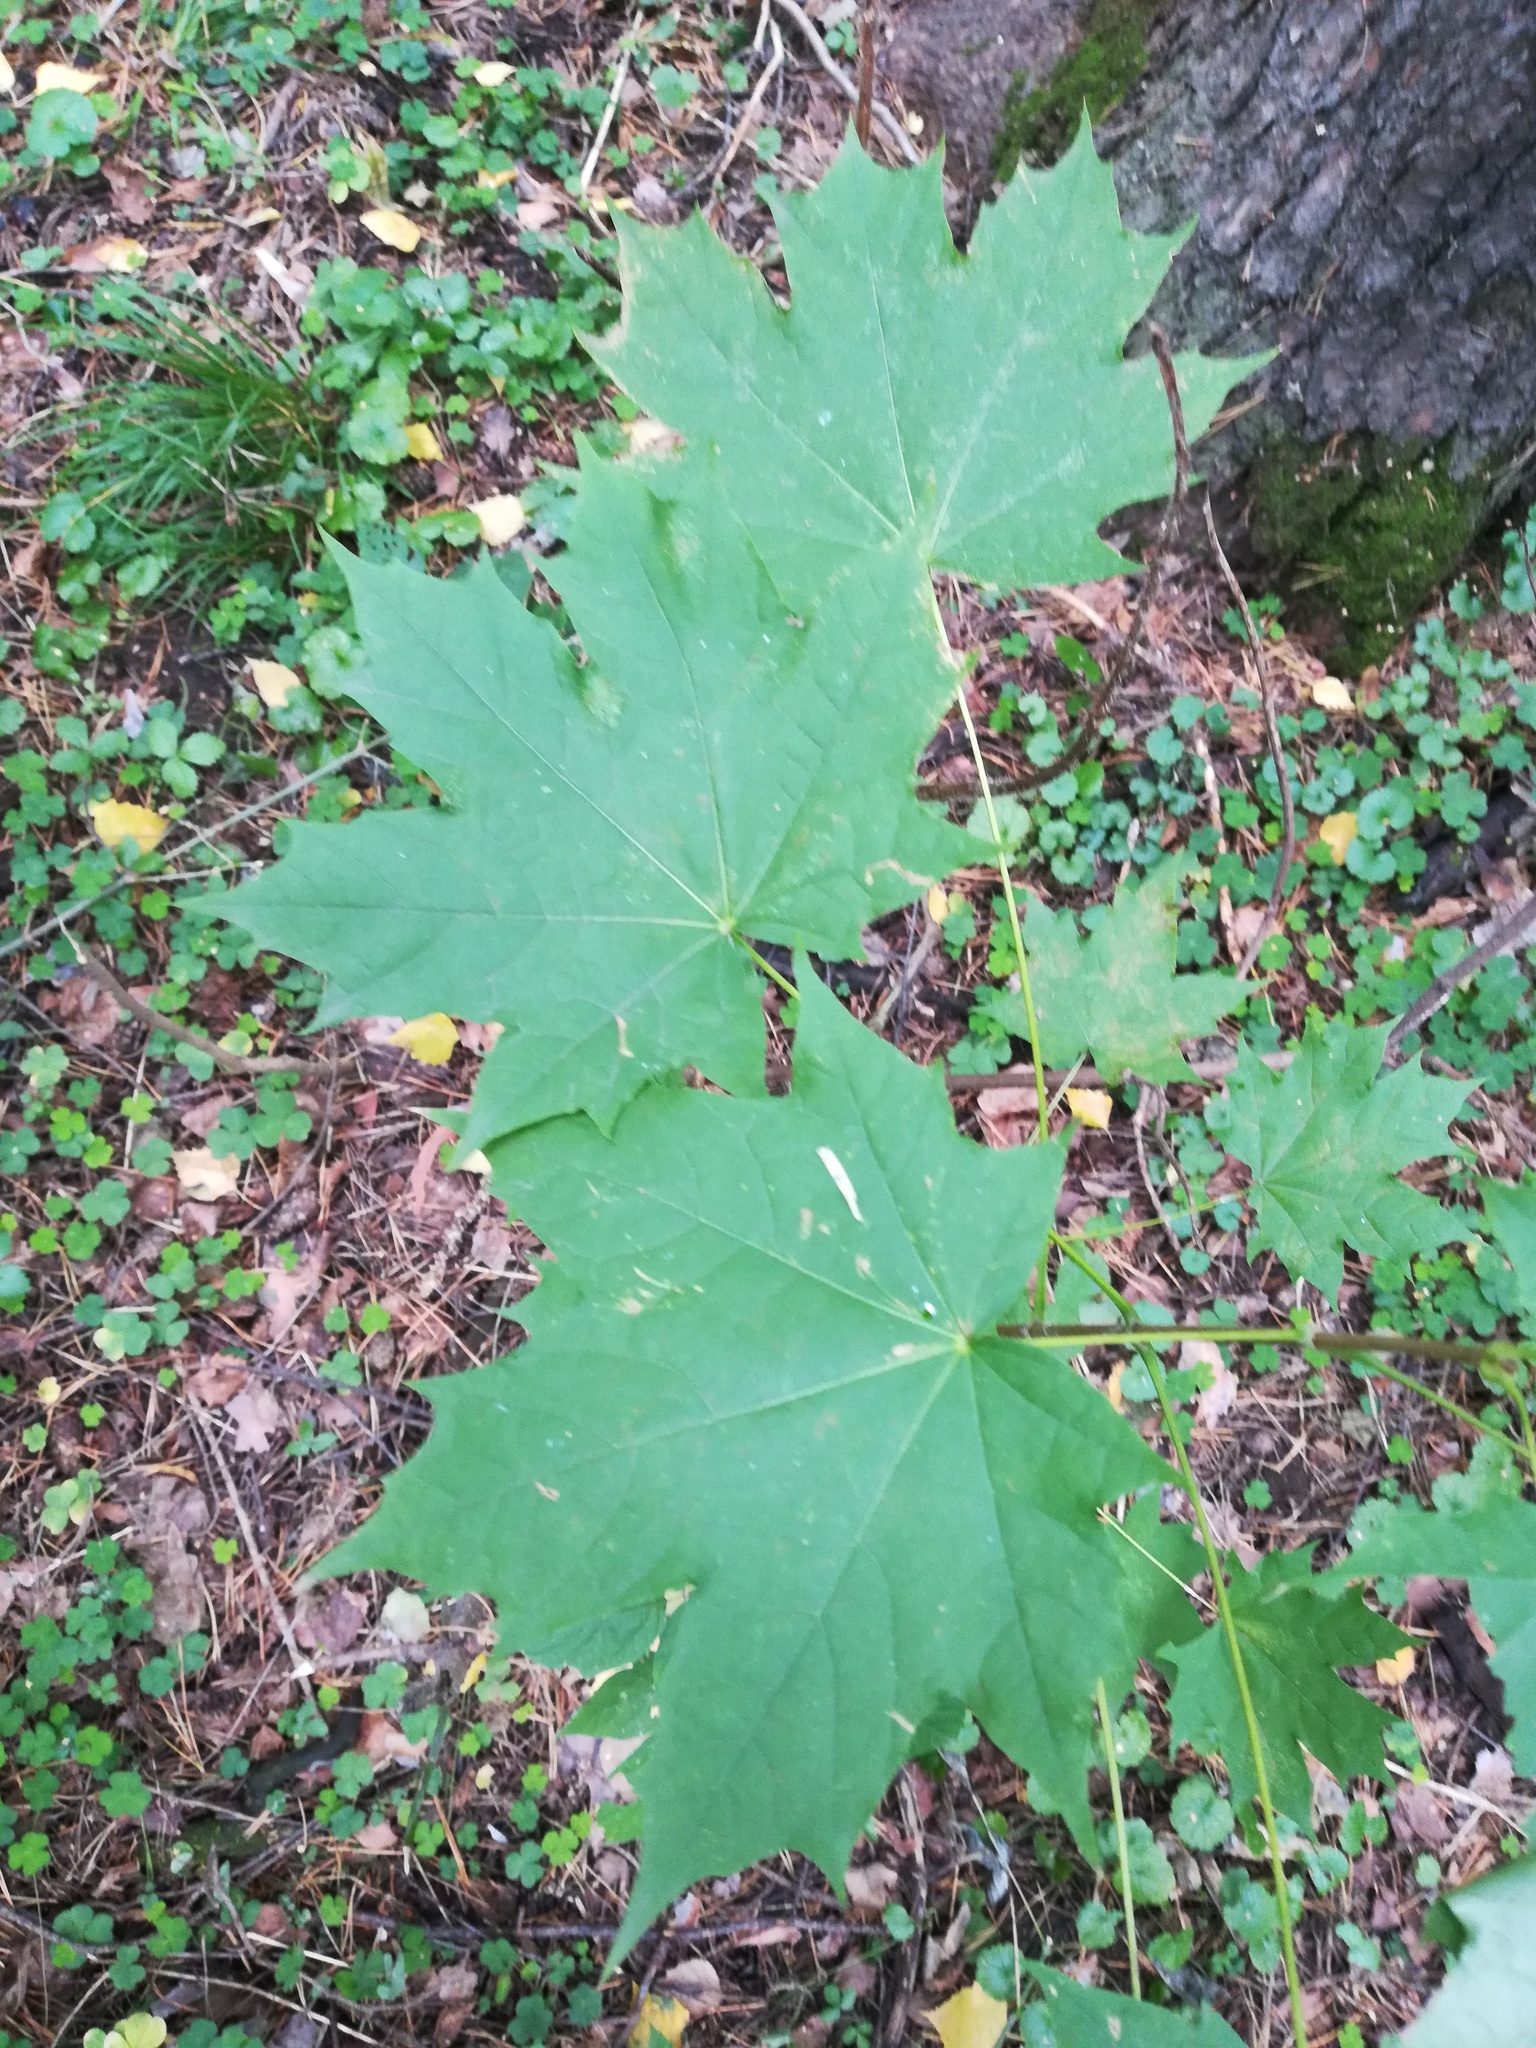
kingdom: Plantae
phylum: Tracheophyta
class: Magnoliopsida
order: Sapindales
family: Sapindaceae
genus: Acer
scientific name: Acer platanoides
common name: Norway maple
